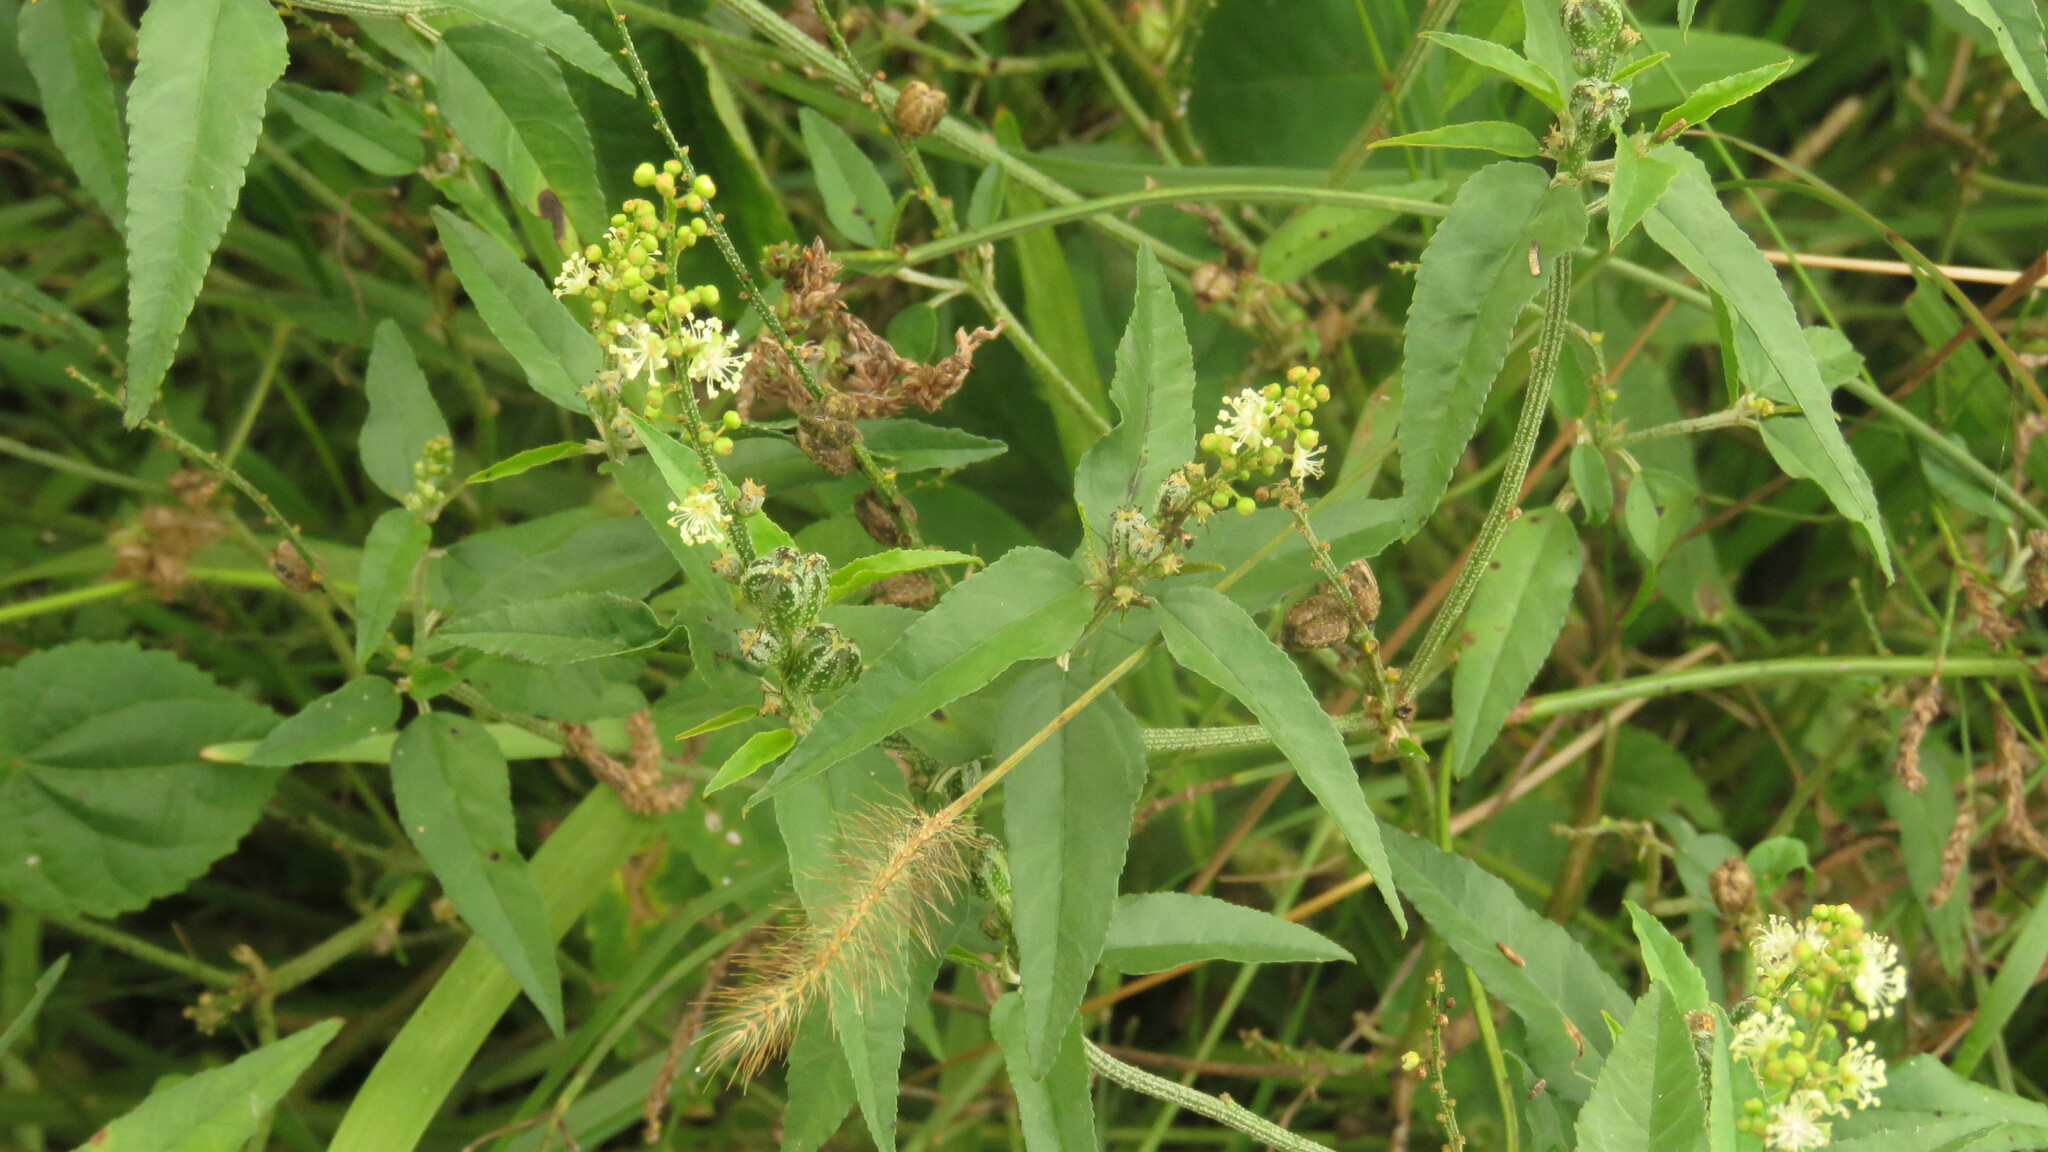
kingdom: Plantae
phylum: Tracheophyta
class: Magnoliopsida
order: Malpighiales
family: Euphorbiaceae
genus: Croton
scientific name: Croton bonplandianus
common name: Bonpland's croton
